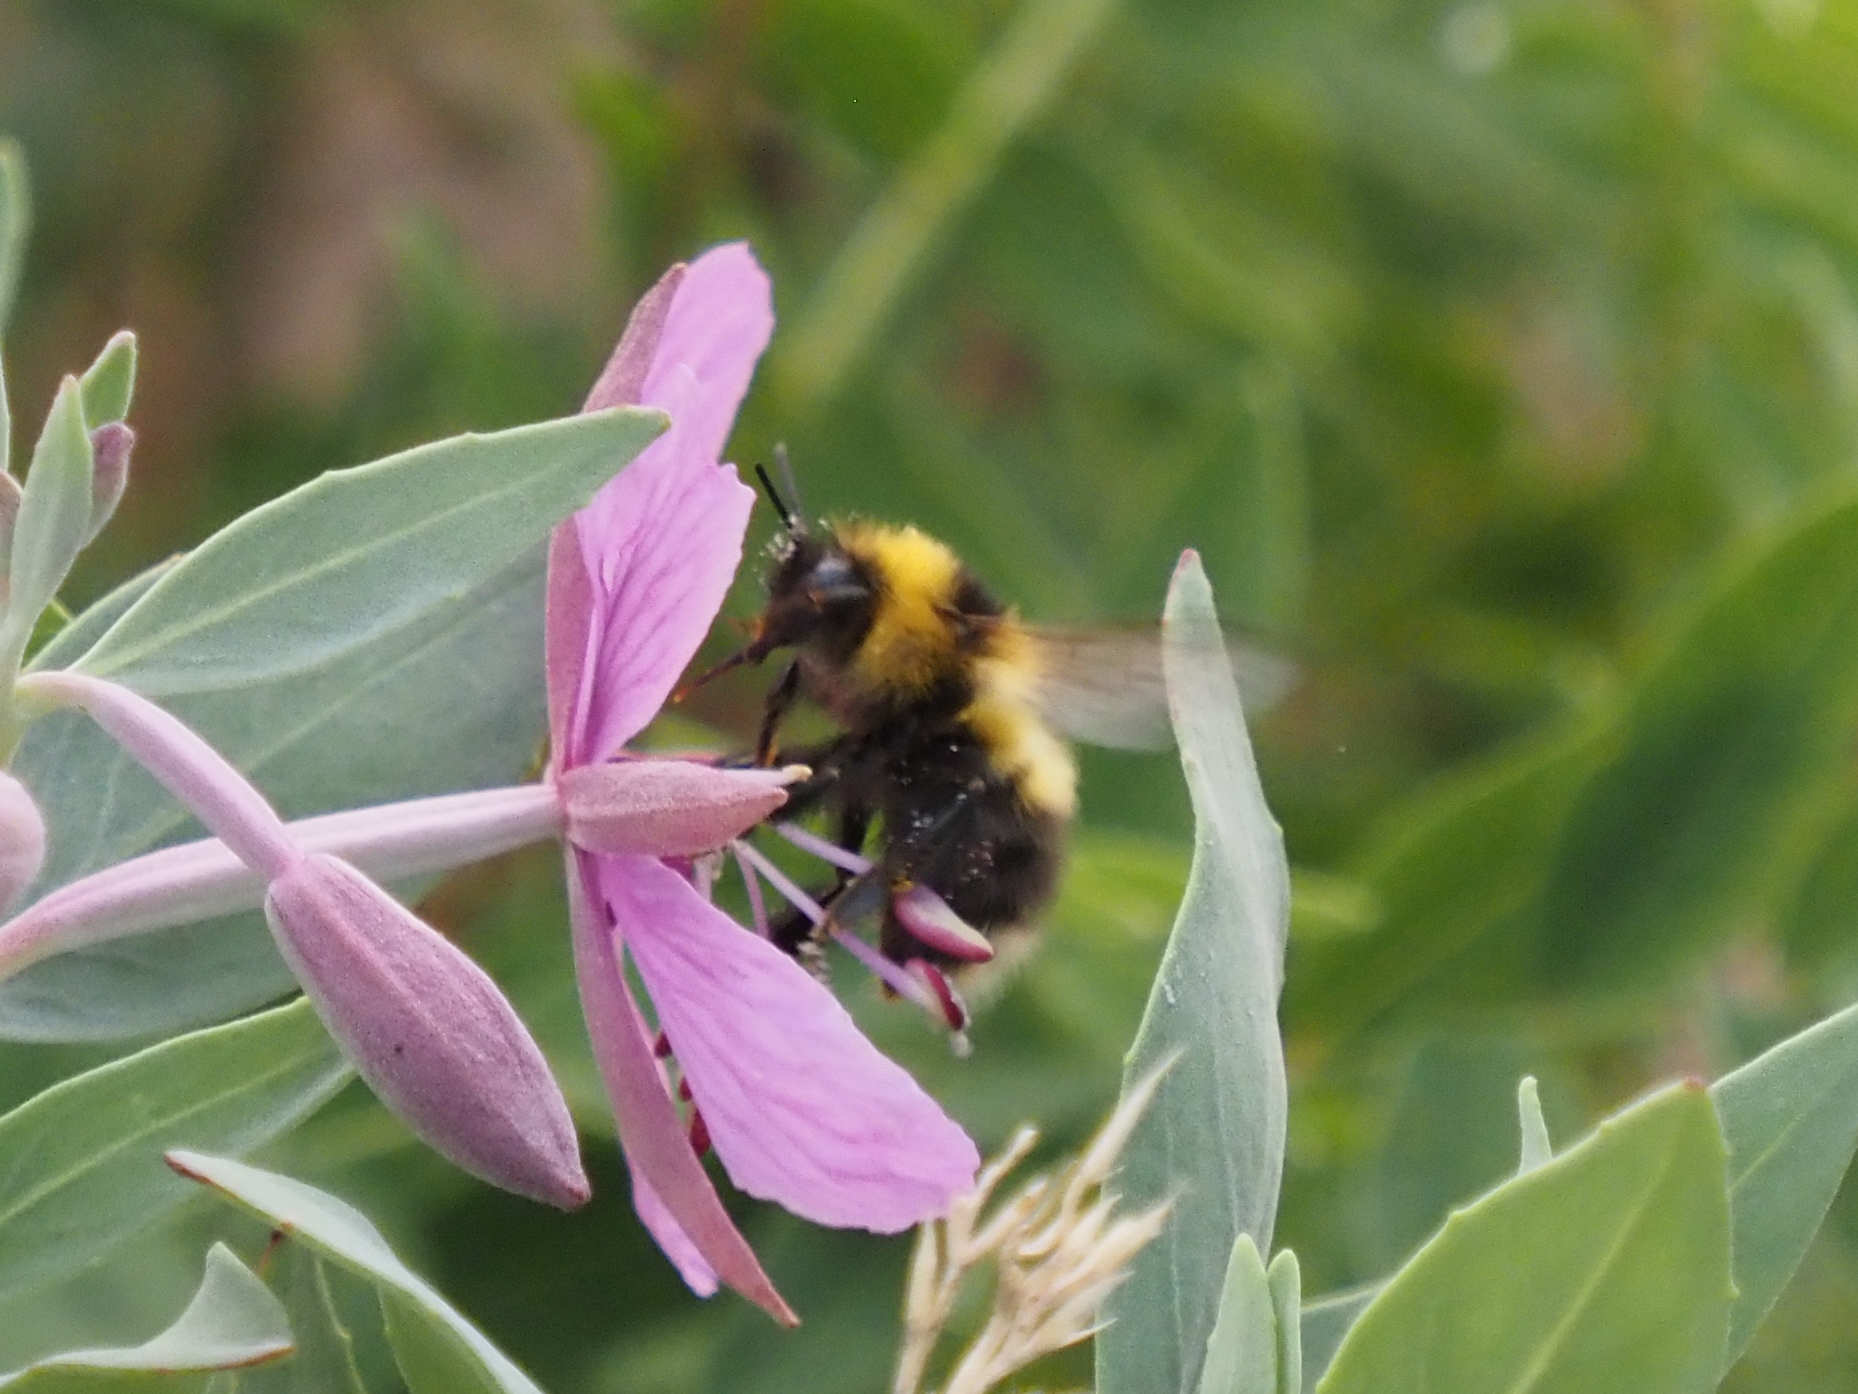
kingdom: Animalia
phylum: Arthropoda
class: Insecta
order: Hymenoptera
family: Apidae
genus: Bombus
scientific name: Bombus jonellus
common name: Heath humble-bee
